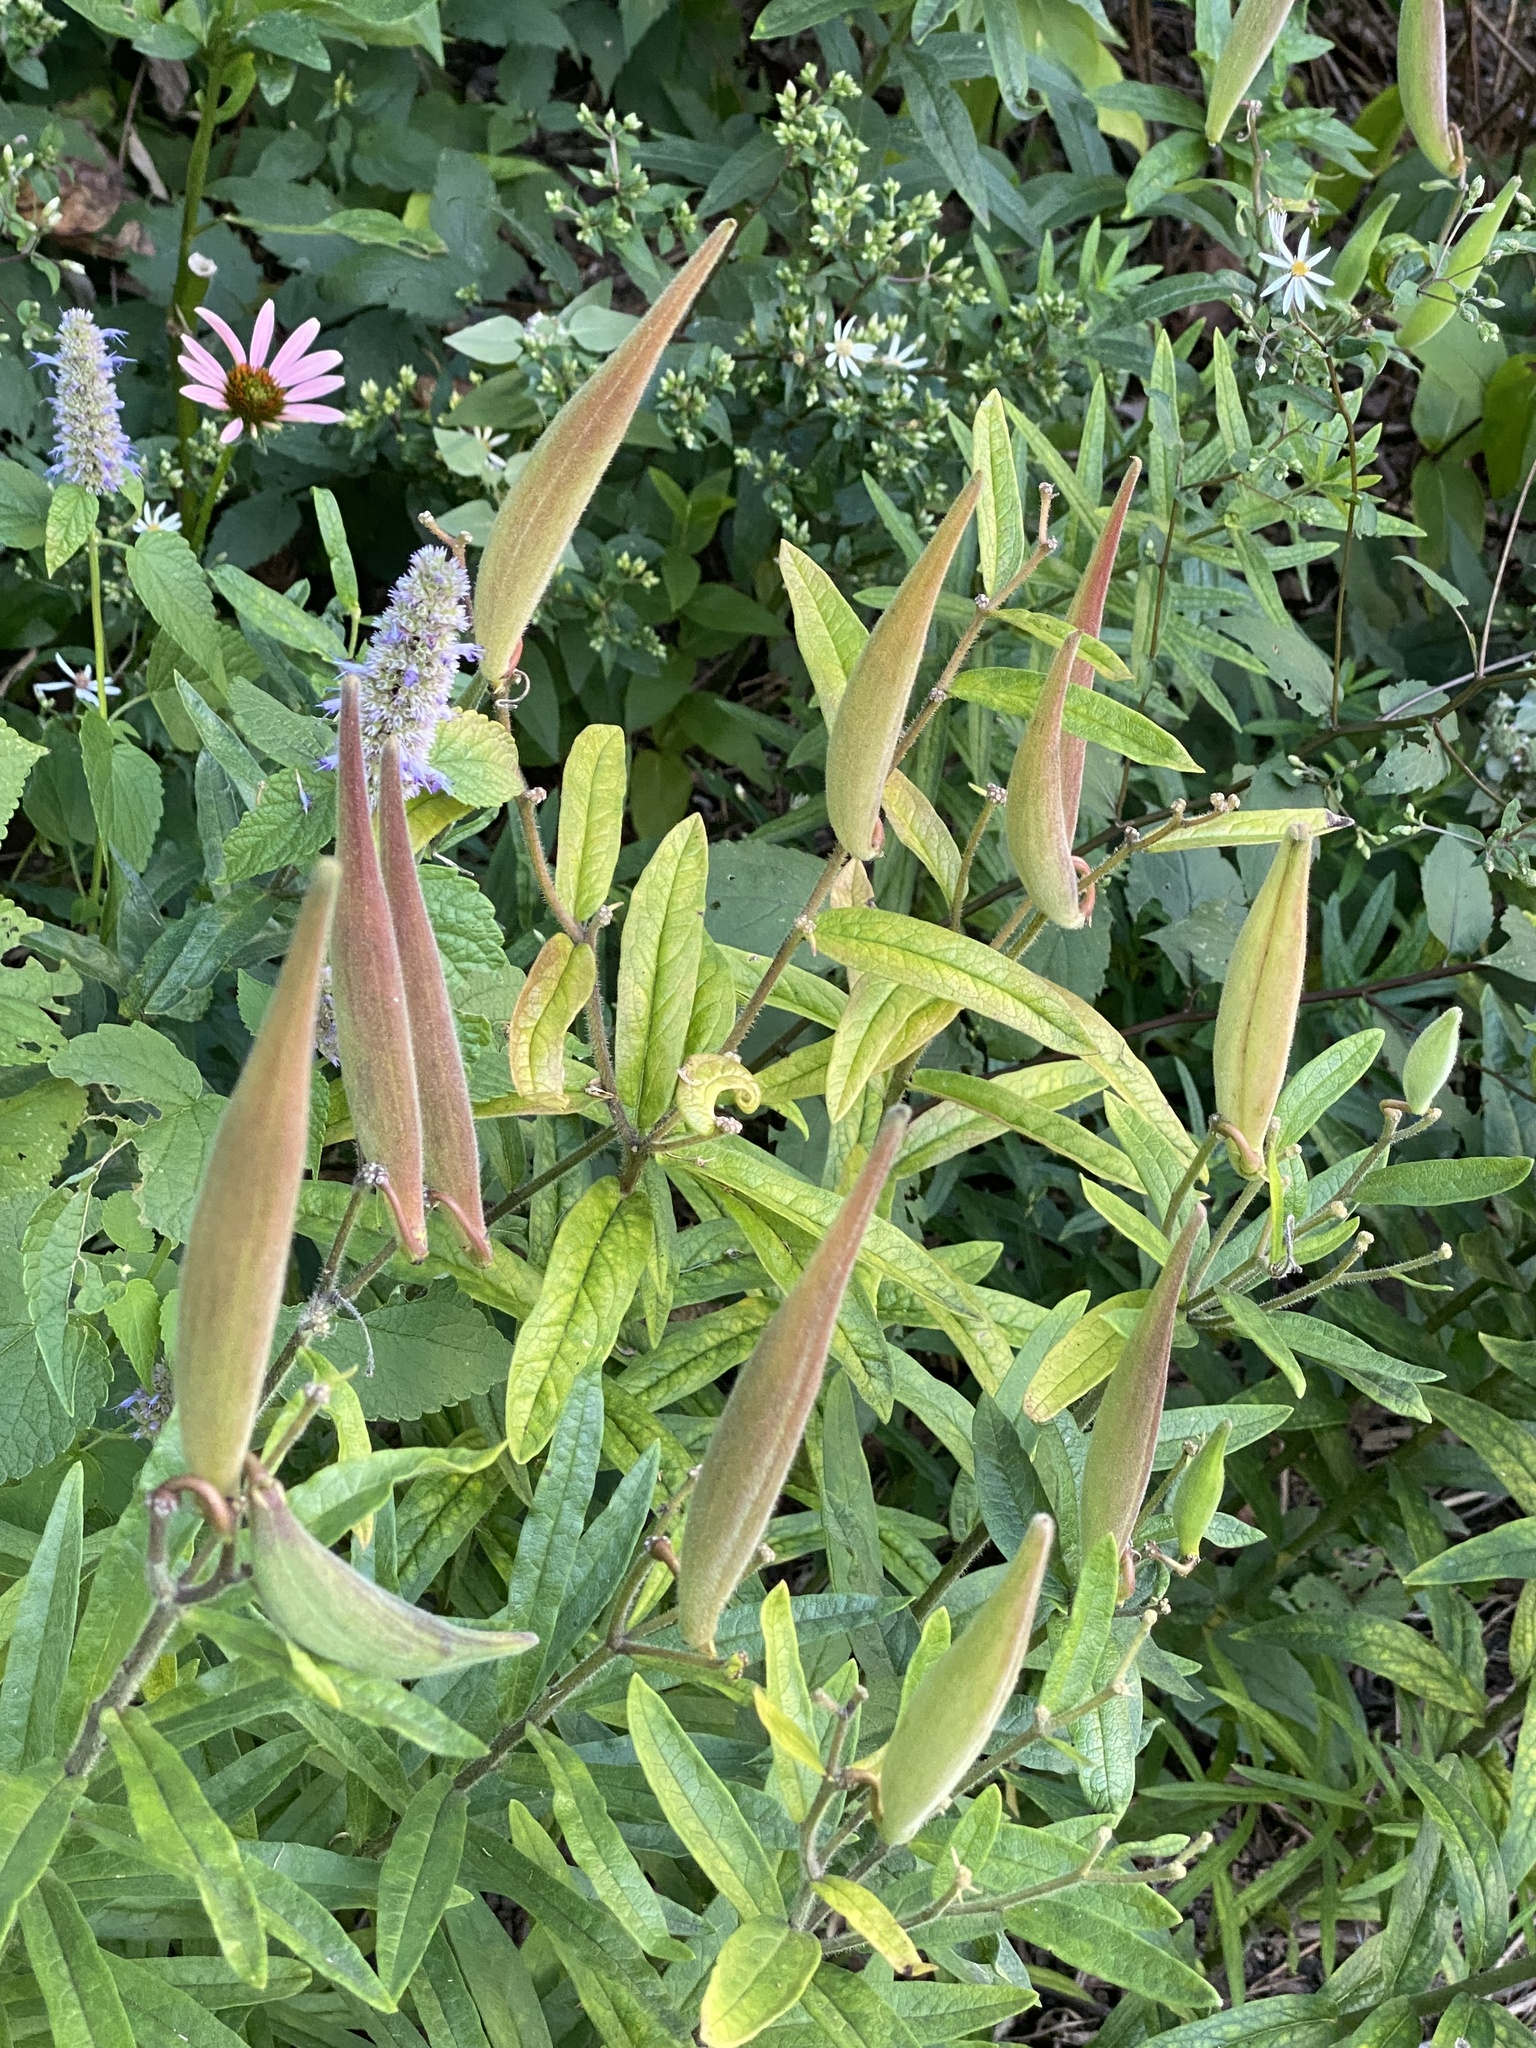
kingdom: Plantae
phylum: Tracheophyta
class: Magnoliopsida
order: Gentianales
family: Apocynaceae
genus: Asclepias
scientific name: Asclepias tuberosa
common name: Butterfly milkweed
